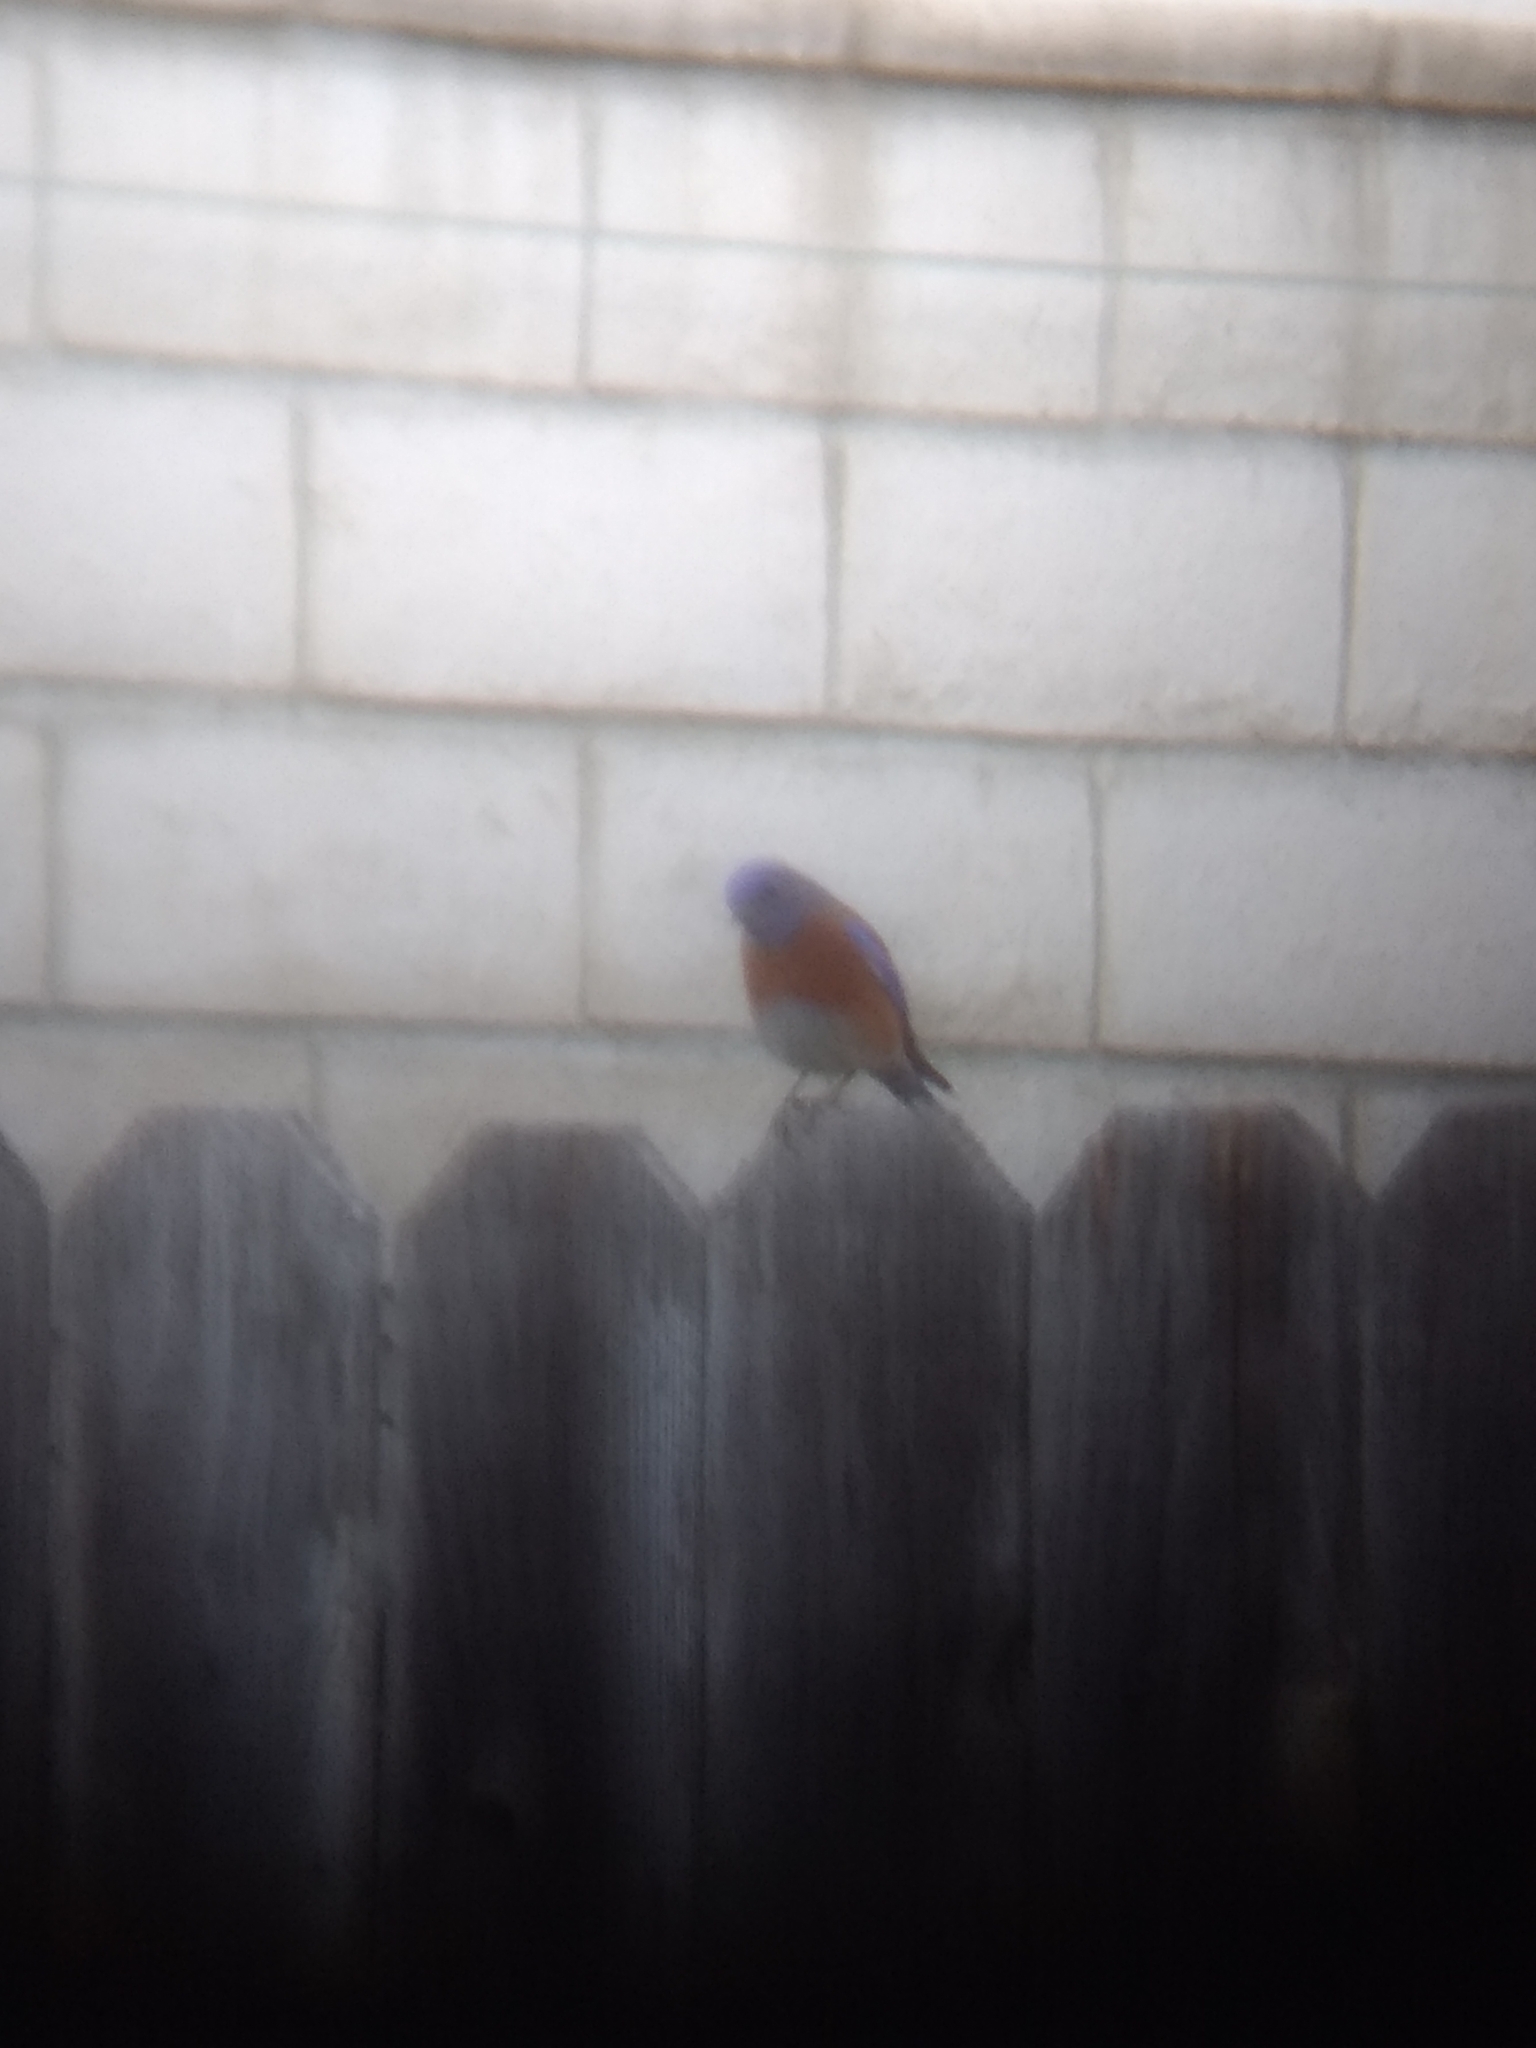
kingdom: Animalia
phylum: Chordata
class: Aves
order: Passeriformes
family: Turdidae
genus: Sialia
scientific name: Sialia mexicana
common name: Western bluebird
